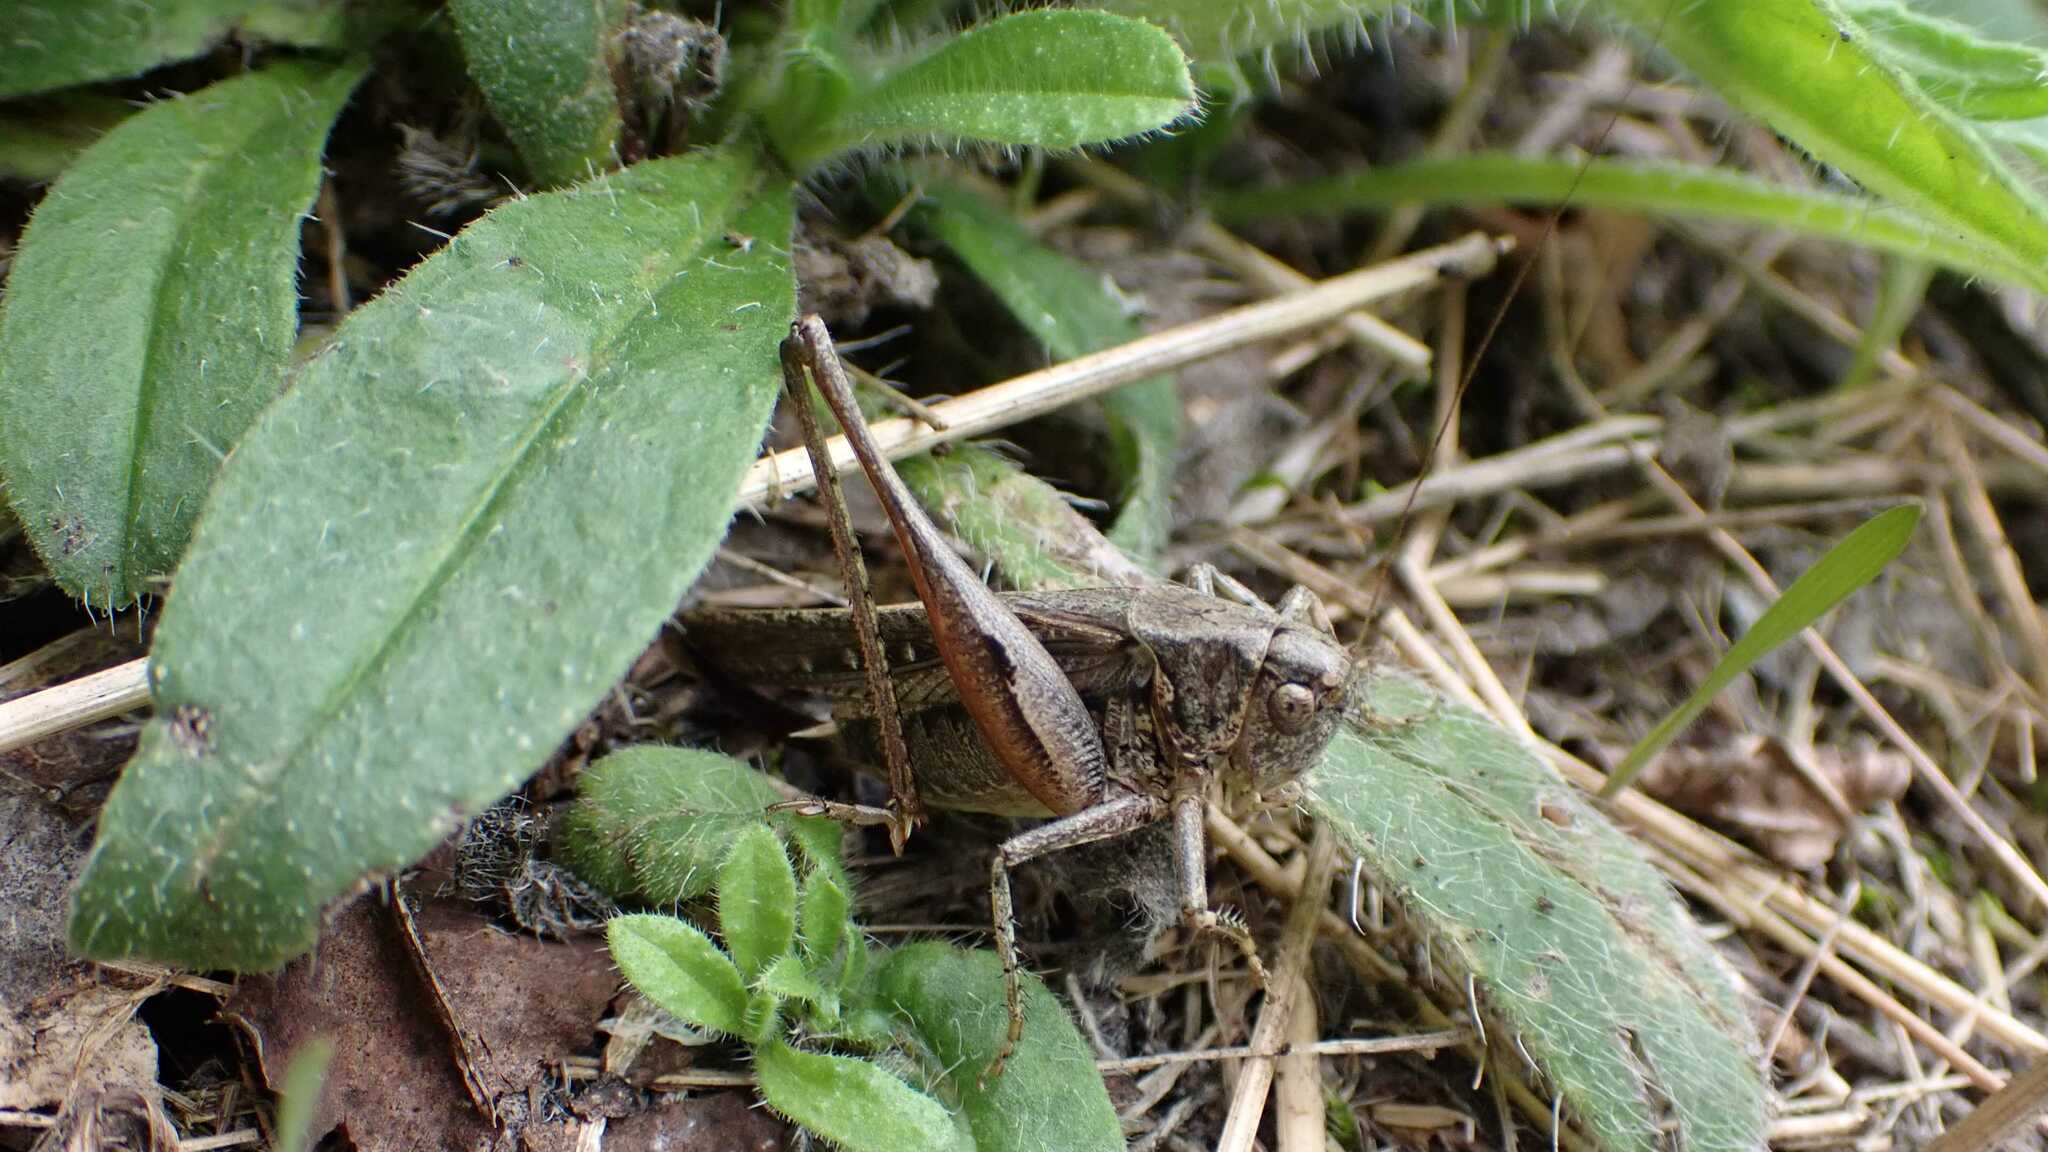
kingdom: Animalia
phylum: Arthropoda
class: Insecta
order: Orthoptera
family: Tettigoniidae
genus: Platycleis
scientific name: Platycleis albopunctata
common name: Grey bush-cricket
